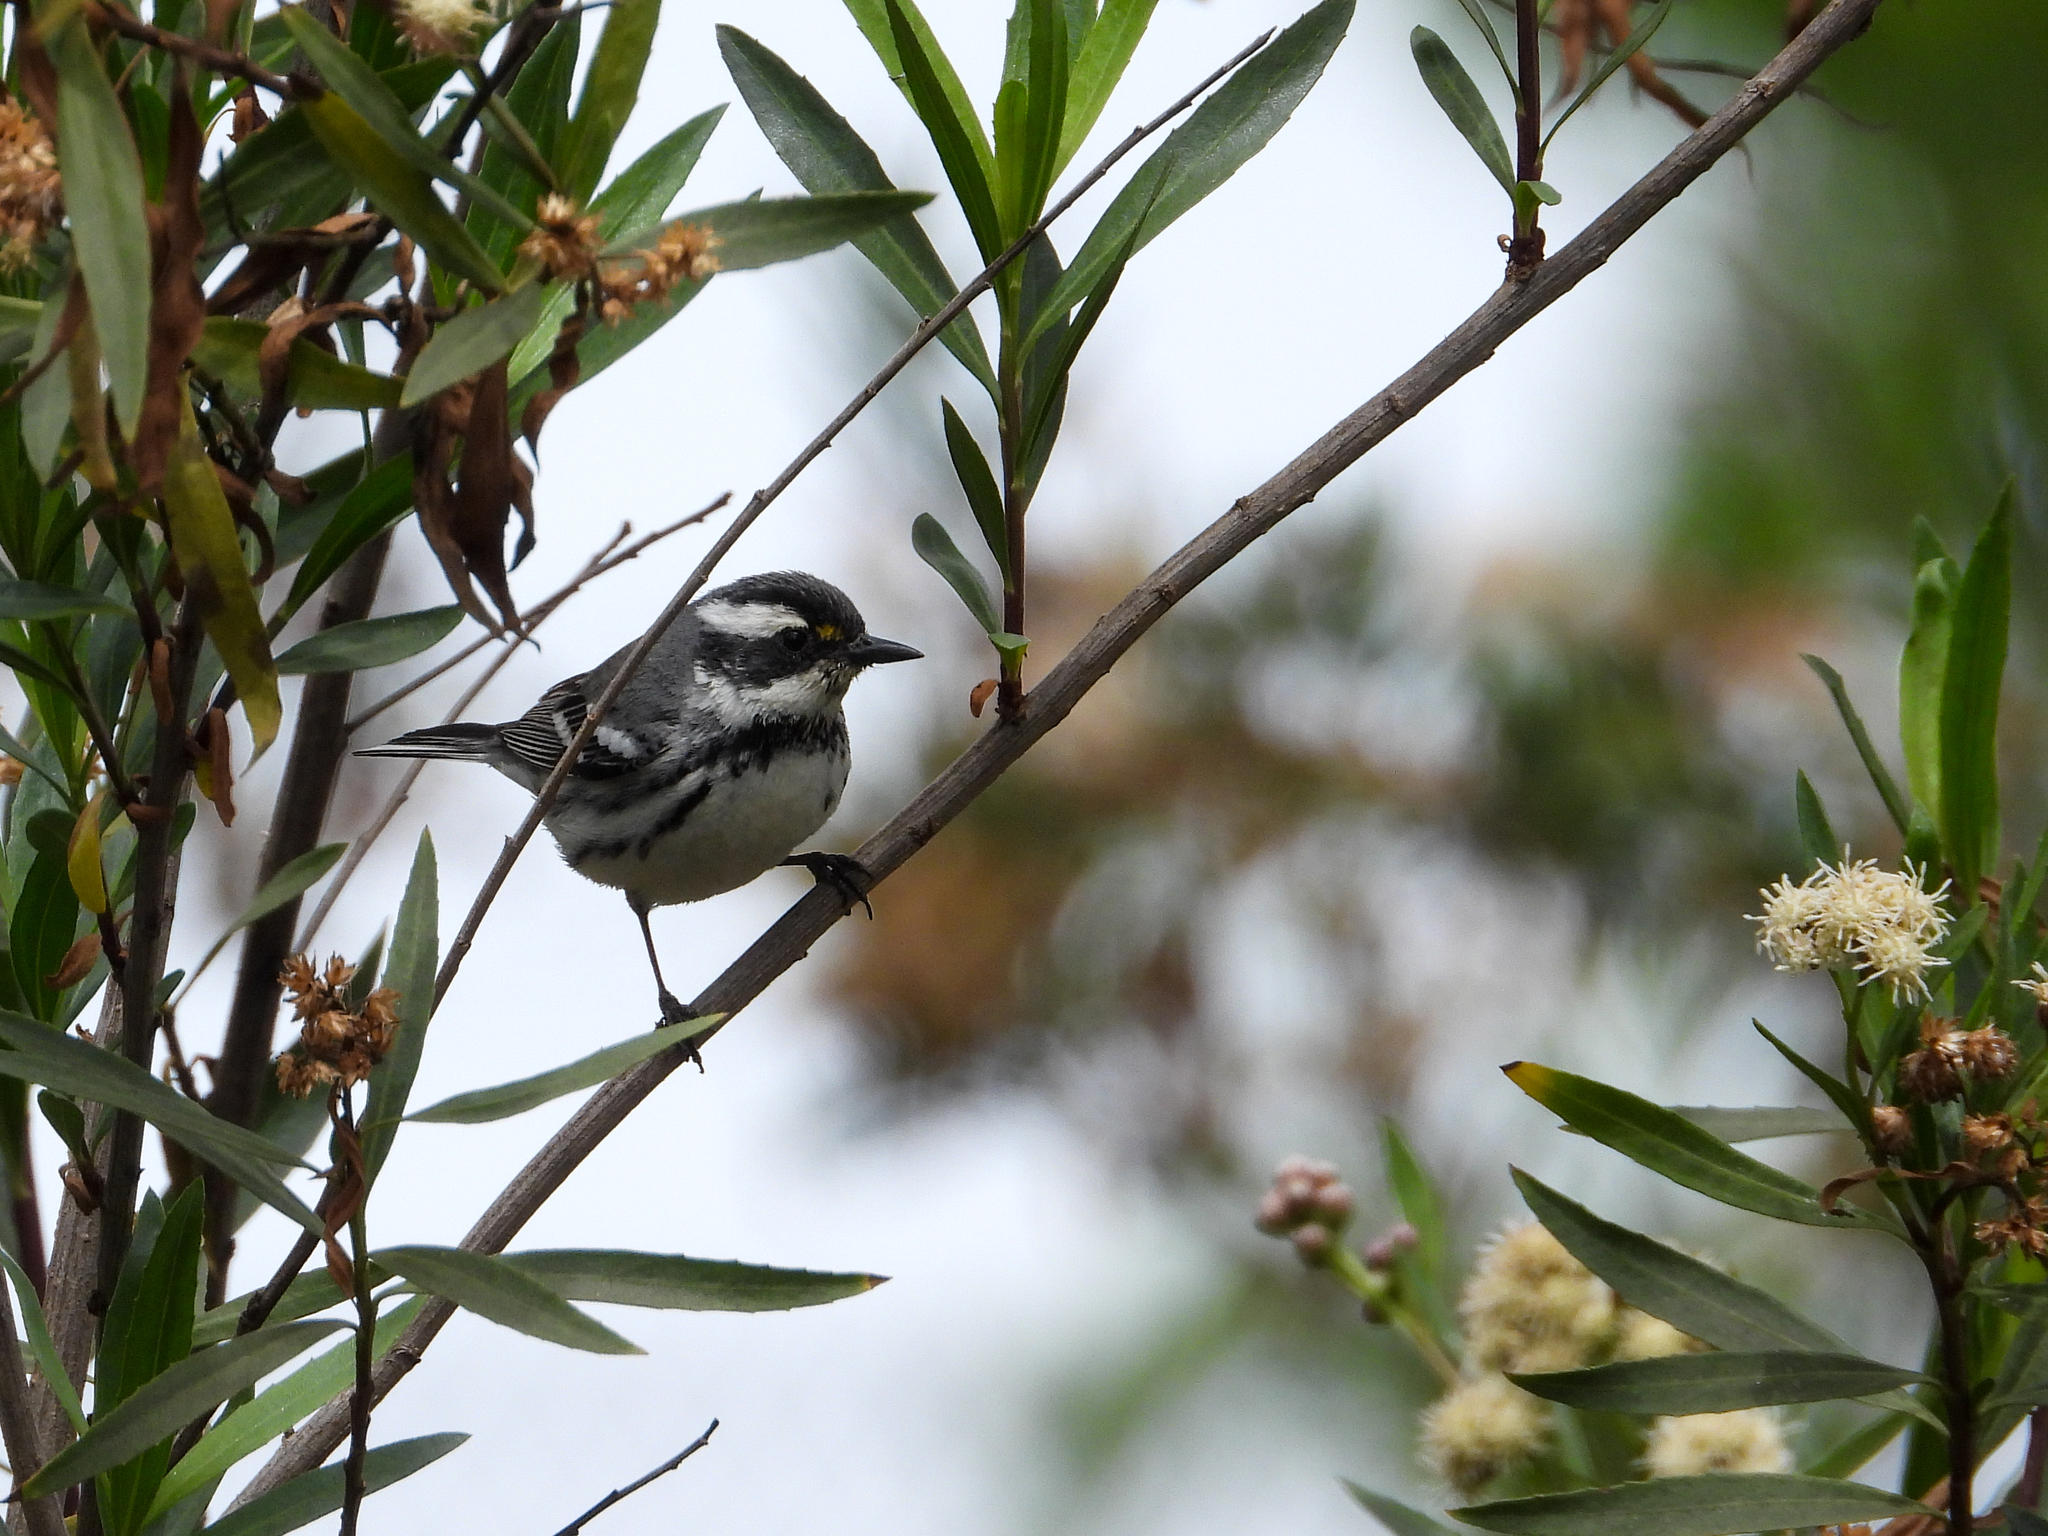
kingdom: Animalia
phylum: Chordata
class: Aves
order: Passeriformes
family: Parulidae
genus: Setophaga
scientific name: Setophaga nigrescens
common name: Black-throated gray warbler
